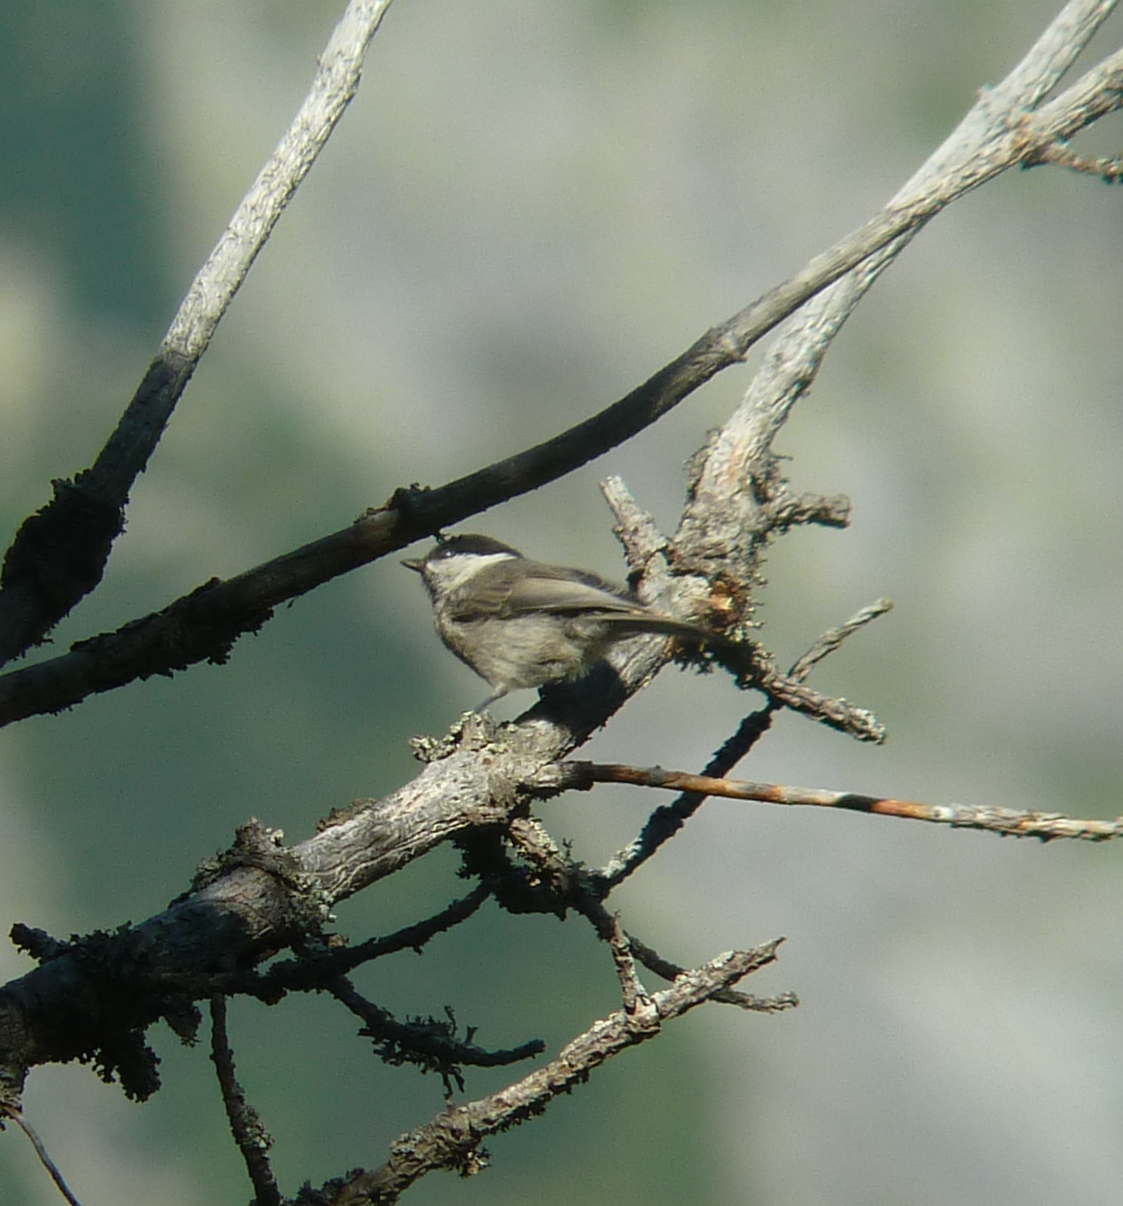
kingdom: Animalia
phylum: Chordata
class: Aves
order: Passeriformes
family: Paridae
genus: Poecile
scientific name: Poecile montanus
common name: Willow tit
